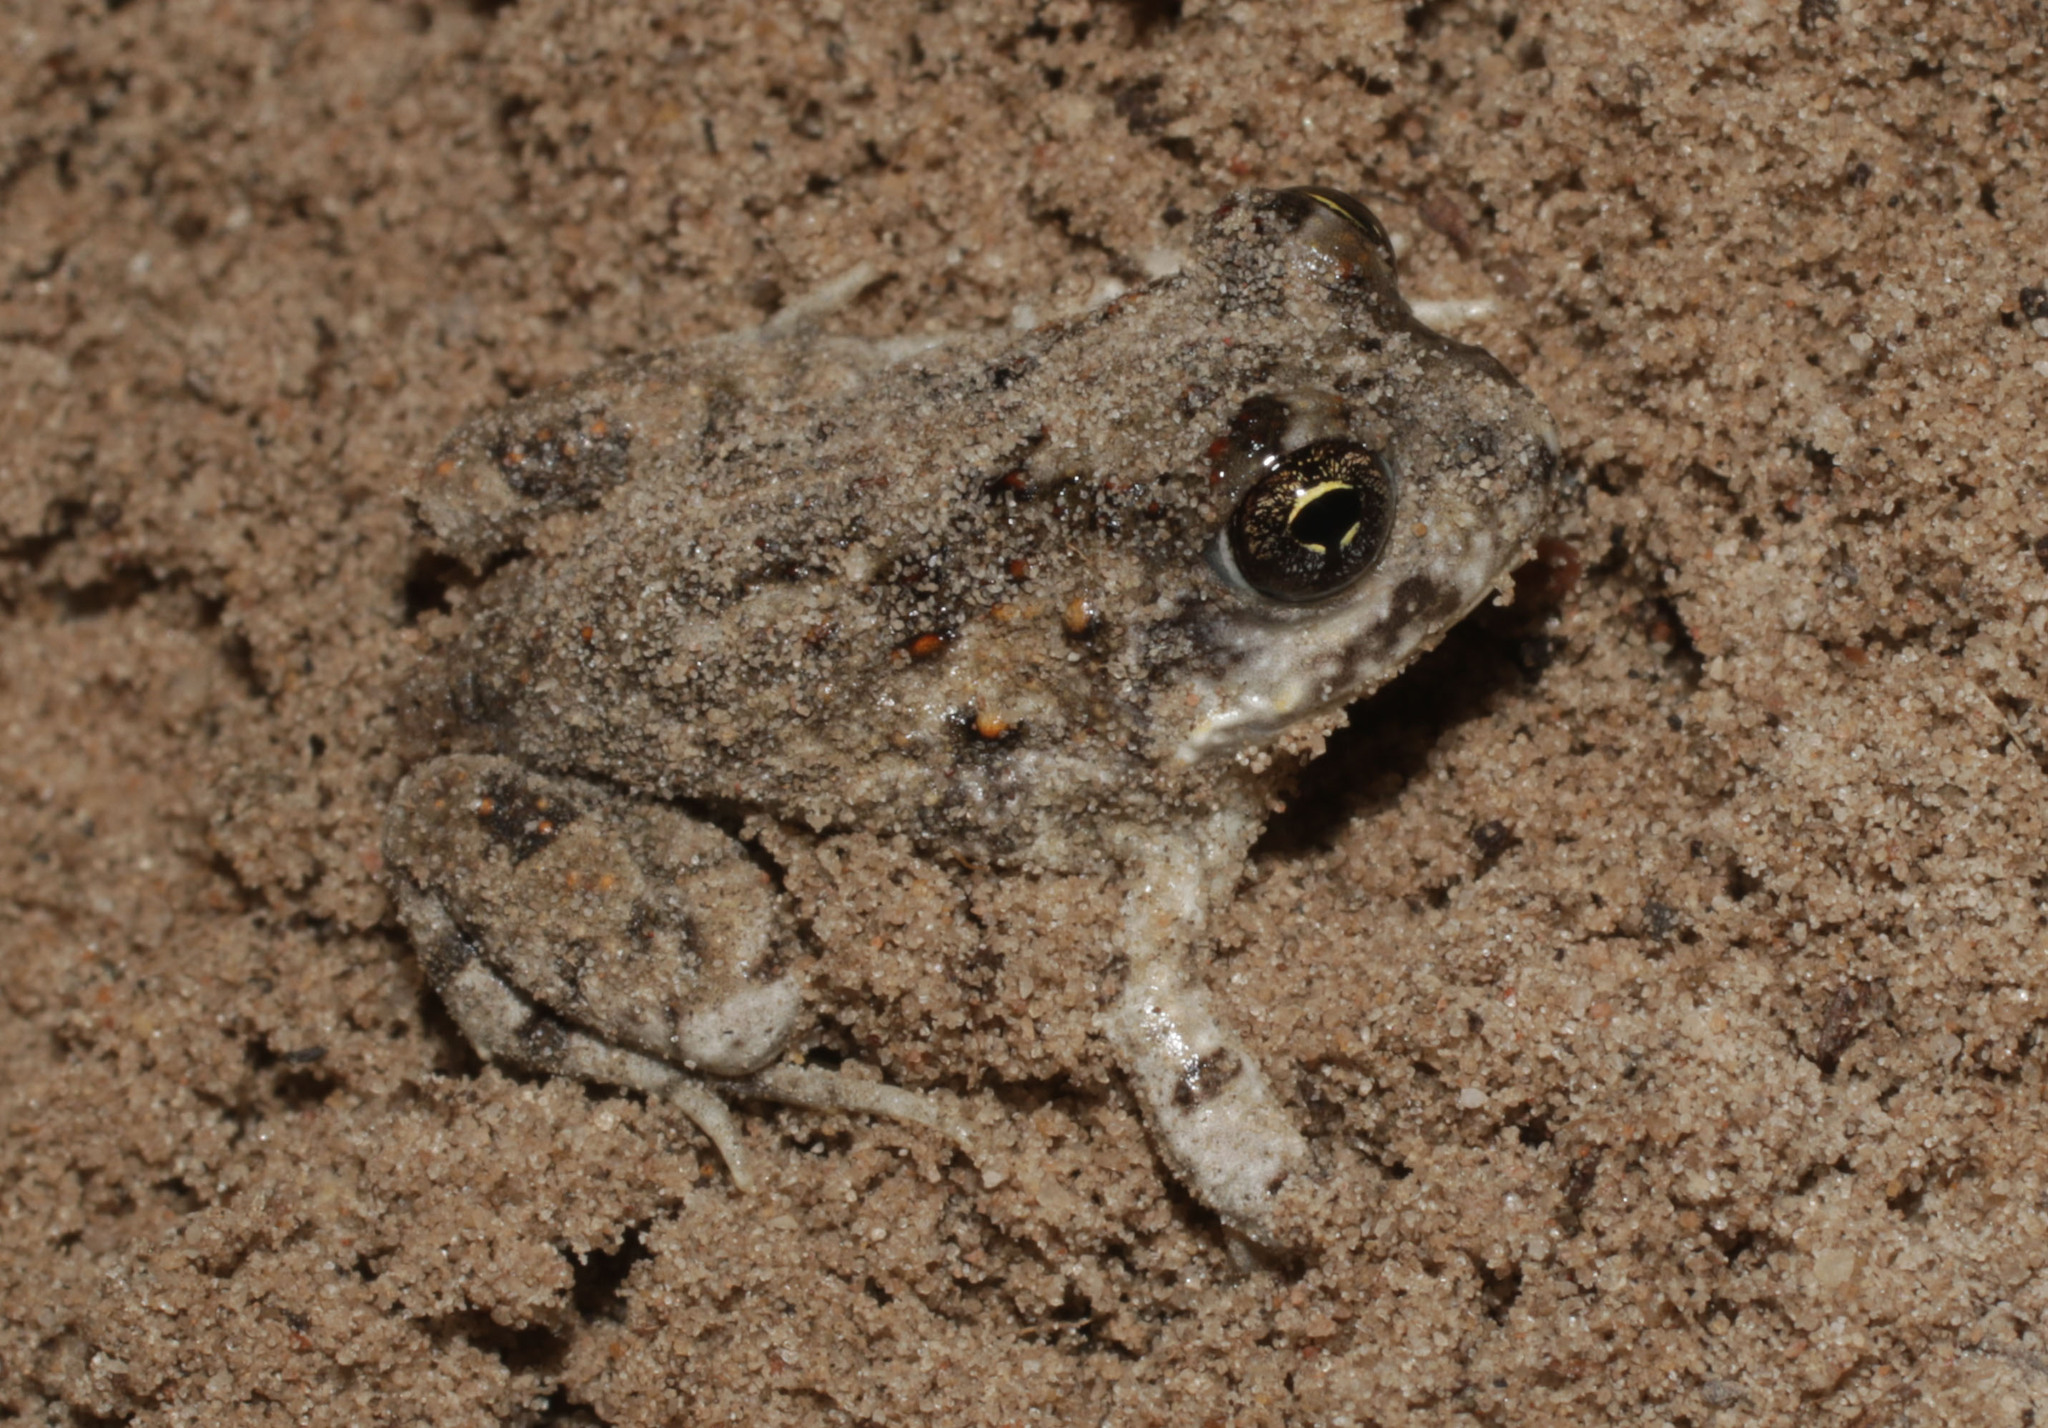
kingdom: Animalia
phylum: Chordata
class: Amphibia
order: Anura
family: Pyxicephalidae
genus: Tomopterna
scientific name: Tomopterna delalandii
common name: Delalande's burrowing bullfrog
